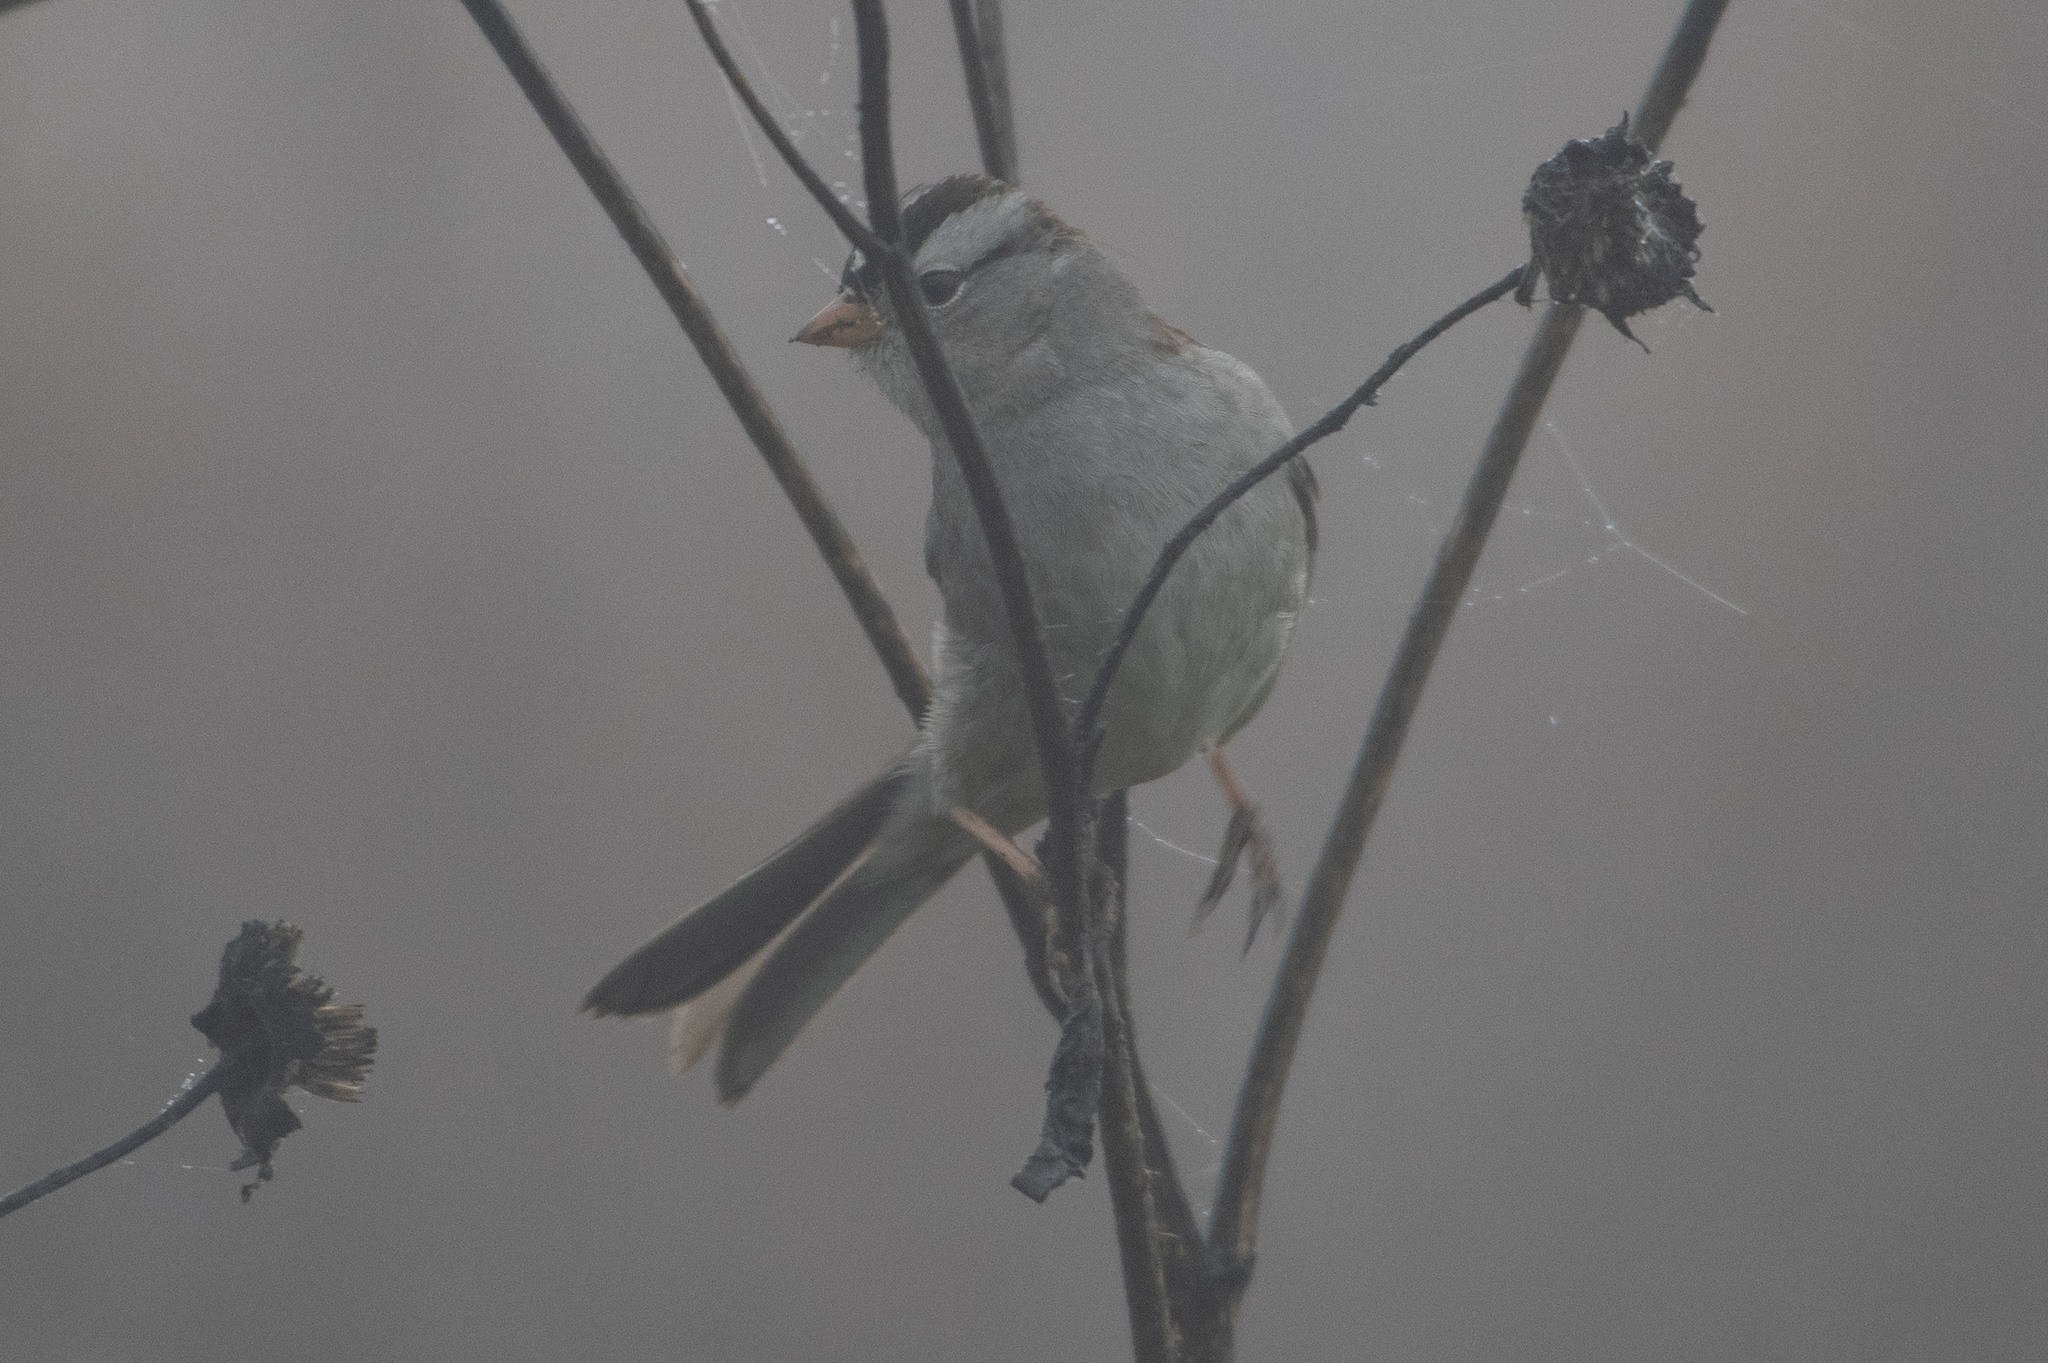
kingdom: Animalia
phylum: Chordata
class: Aves
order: Passeriformes
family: Passerellidae
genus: Zonotrichia
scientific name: Zonotrichia leucophrys
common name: White-crowned sparrow
